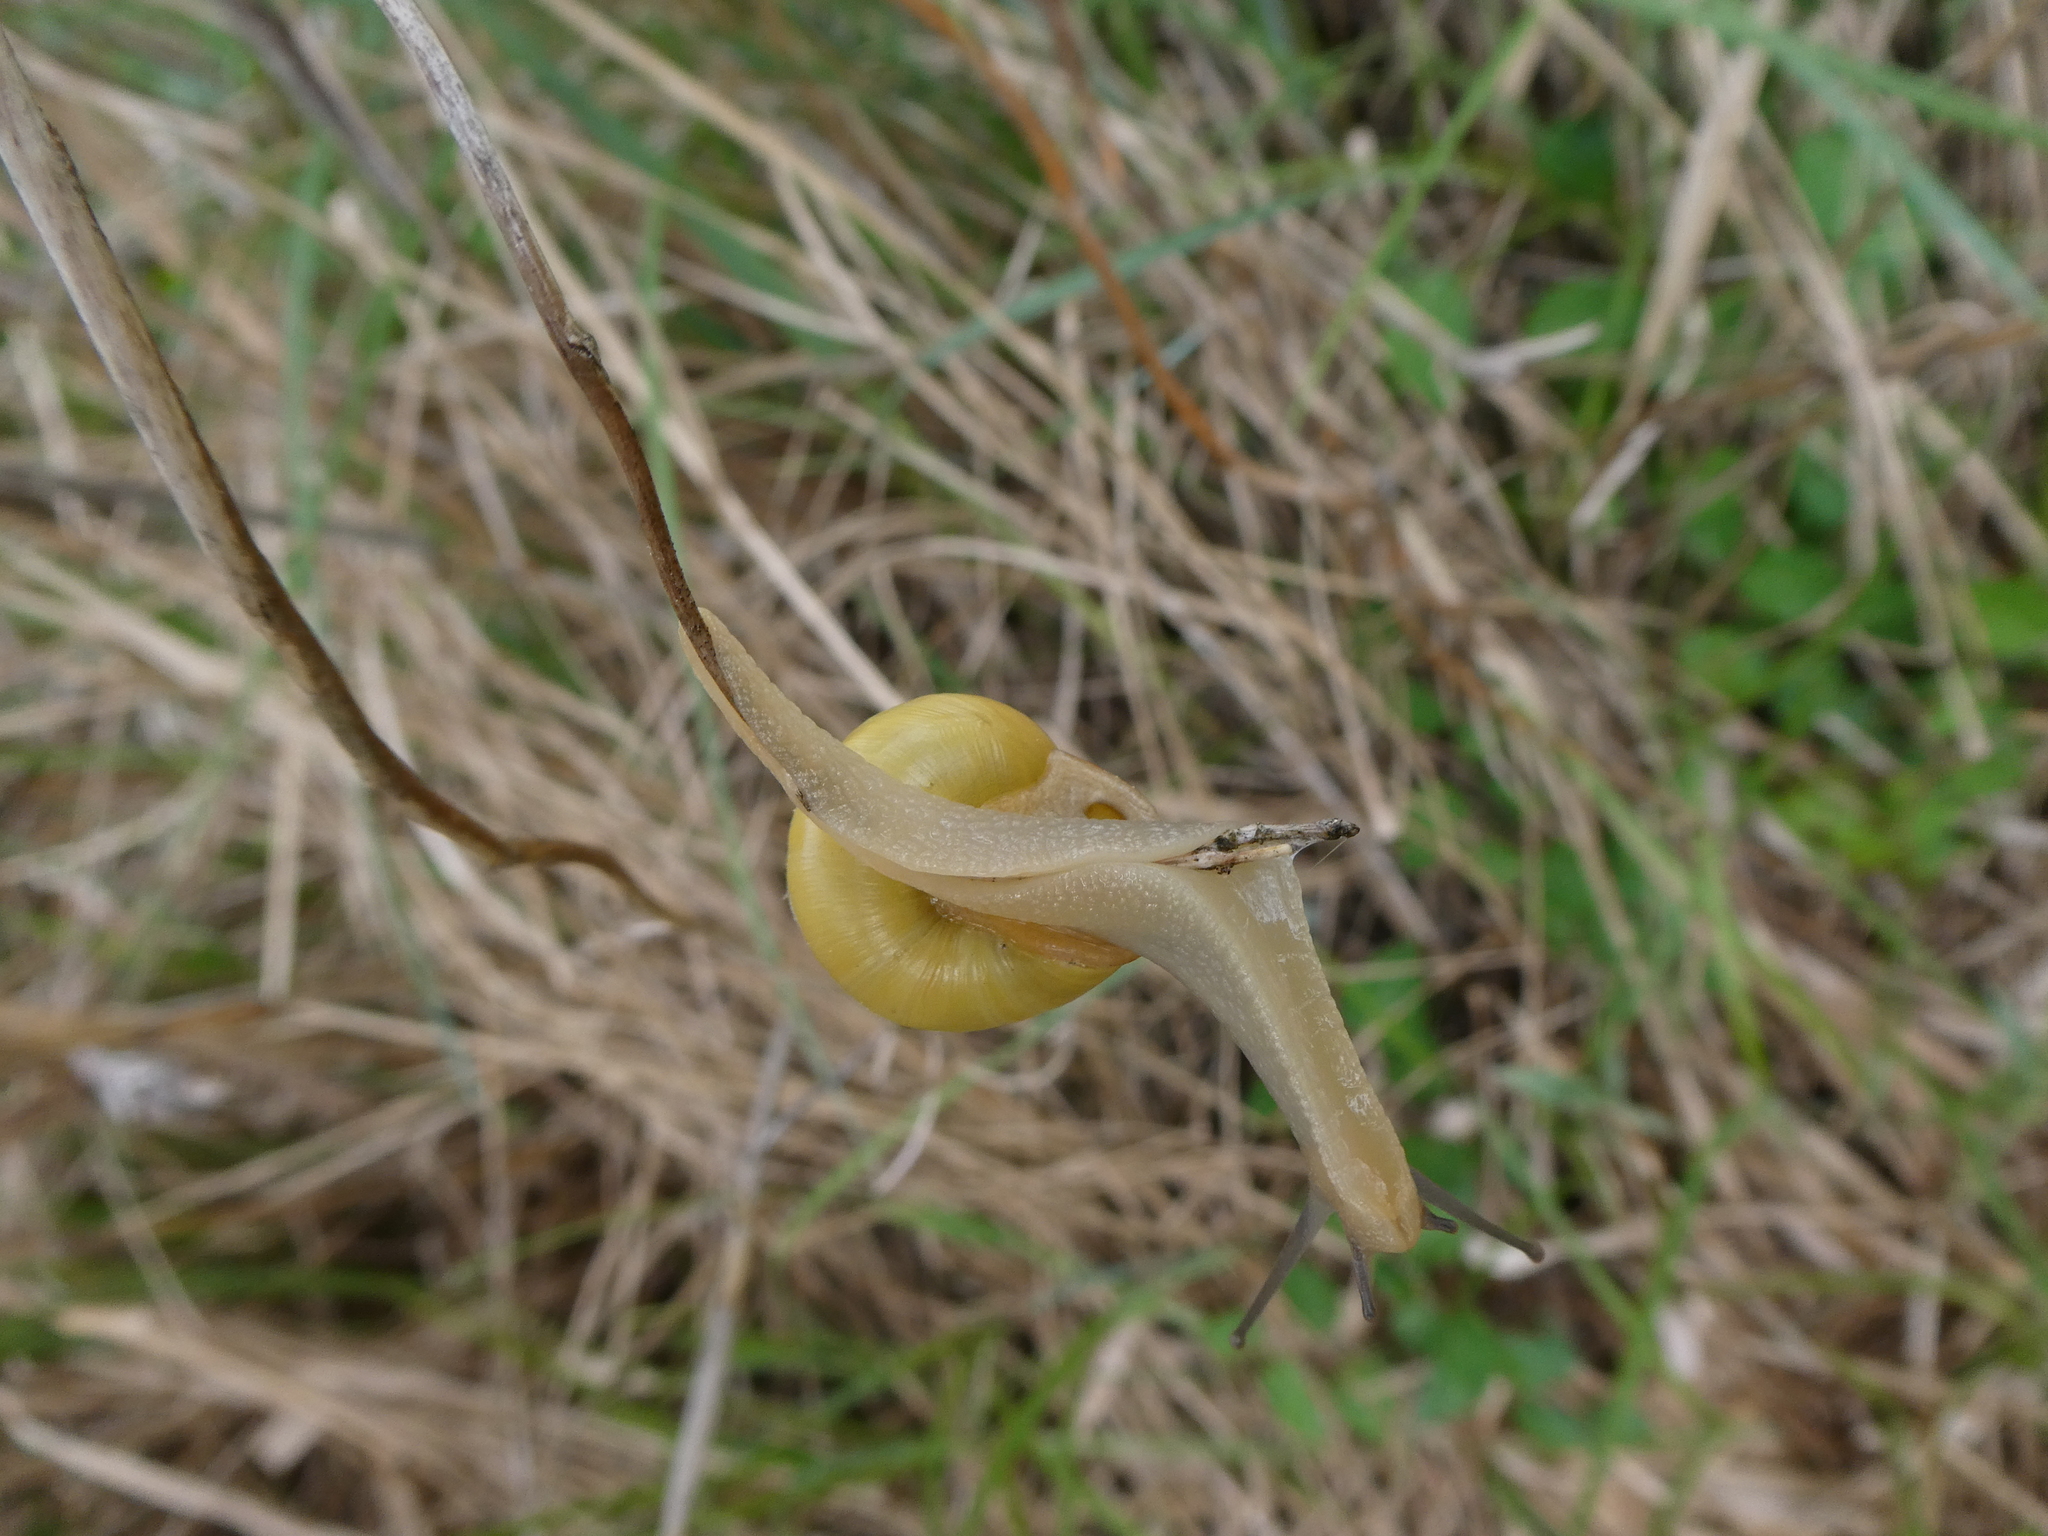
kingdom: Animalia
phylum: Mollusca
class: Gastropoda
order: Stylommatophora
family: Helicidae
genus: Cepaea
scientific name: Cepaea hortensis
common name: White-lip gardensnail
